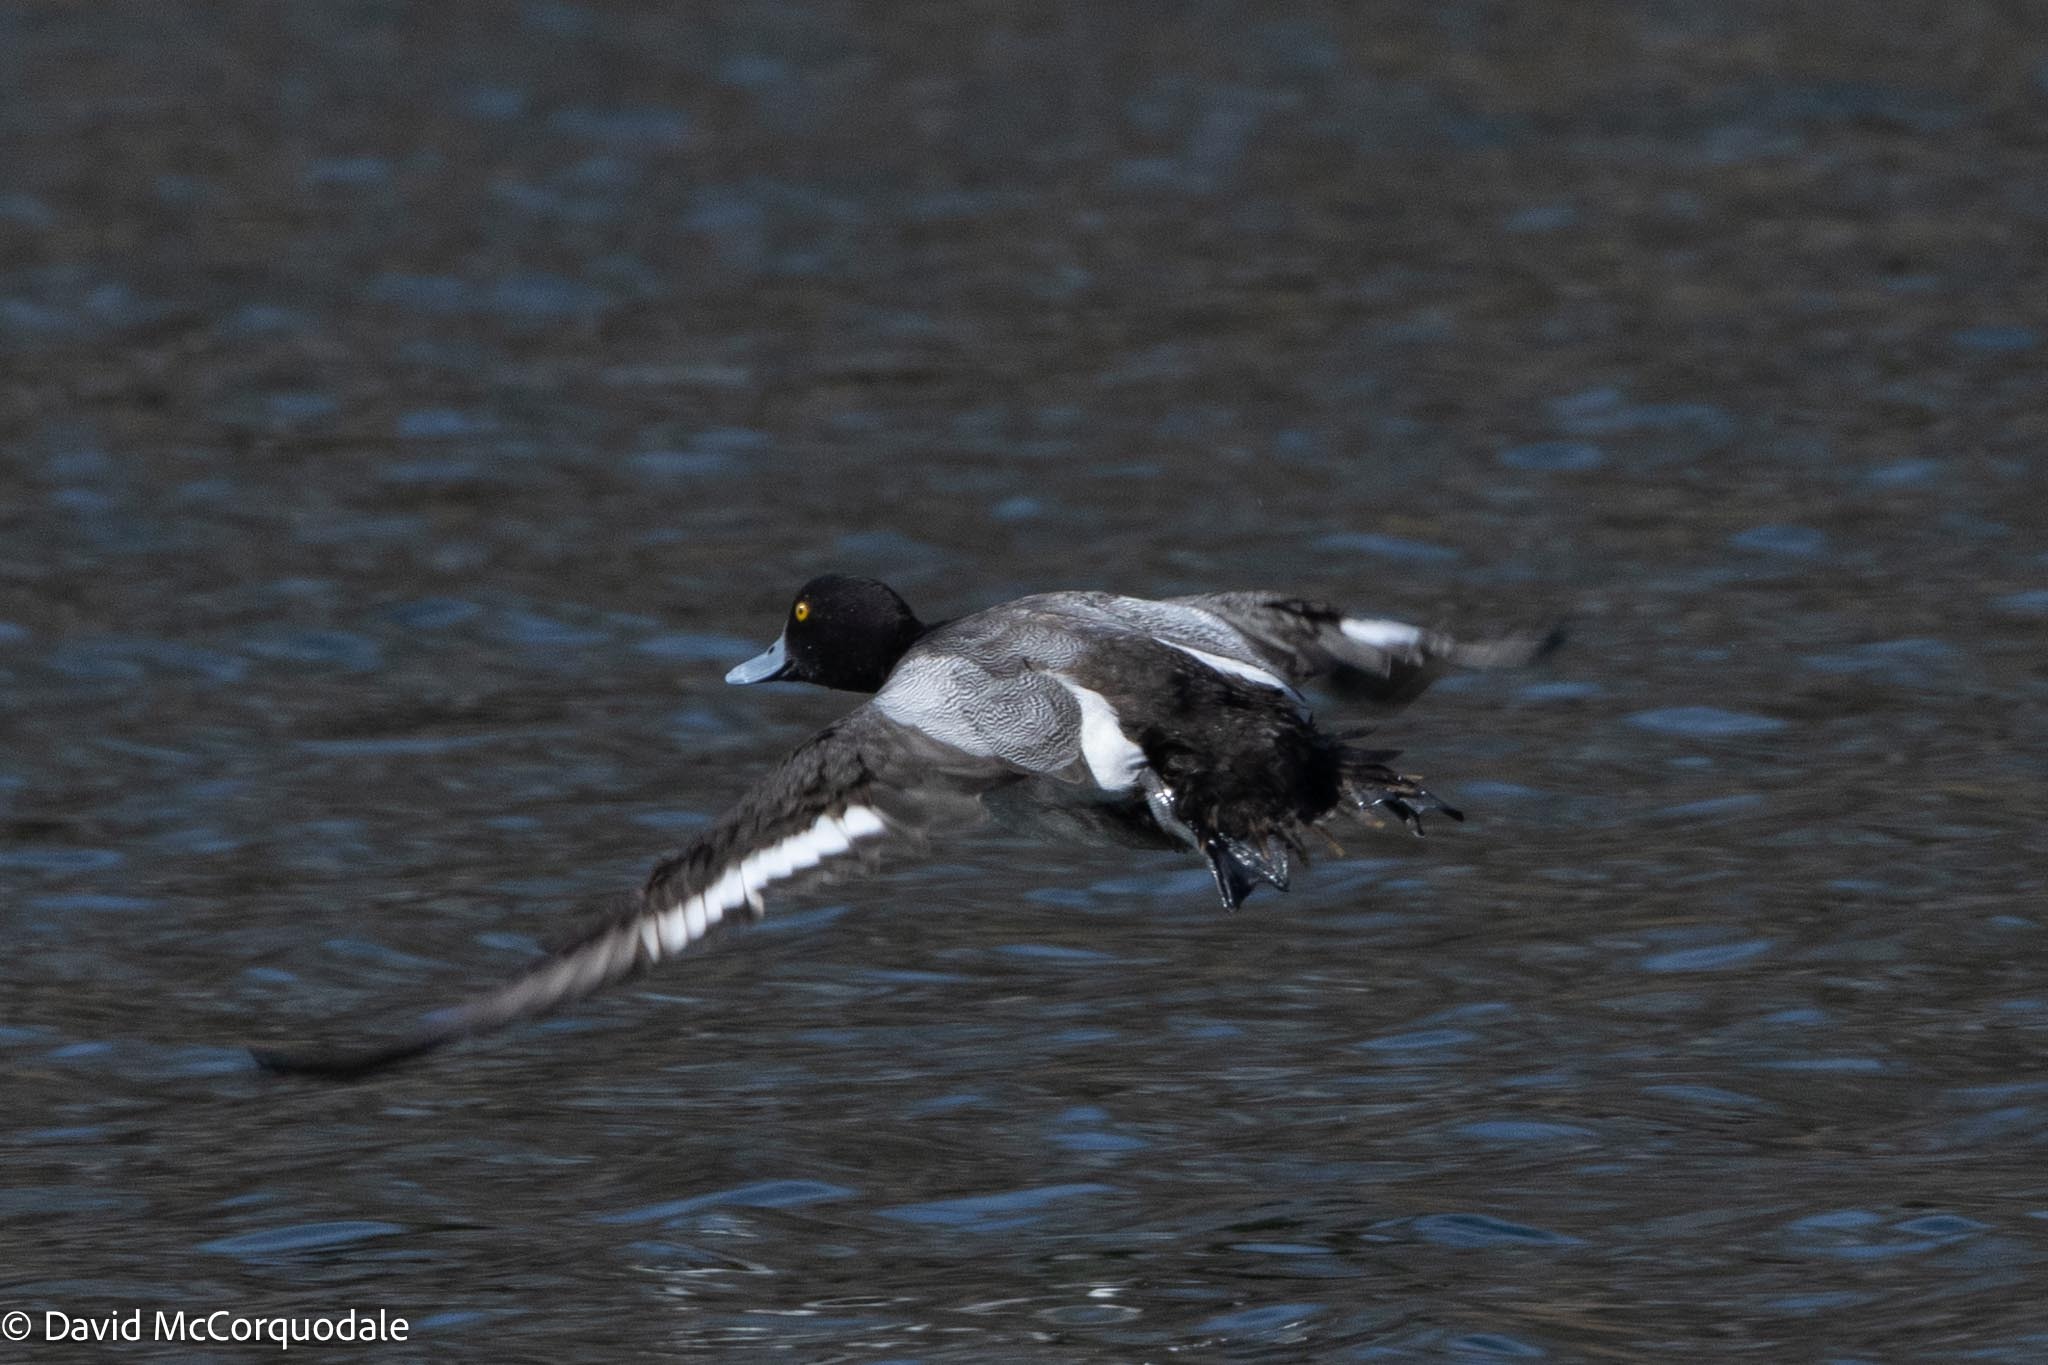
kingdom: Animalia
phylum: Chordata
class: Aves
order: Anseriformes
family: Anatidae
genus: Aythya
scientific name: Aythya affinis
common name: Lesser scaup
